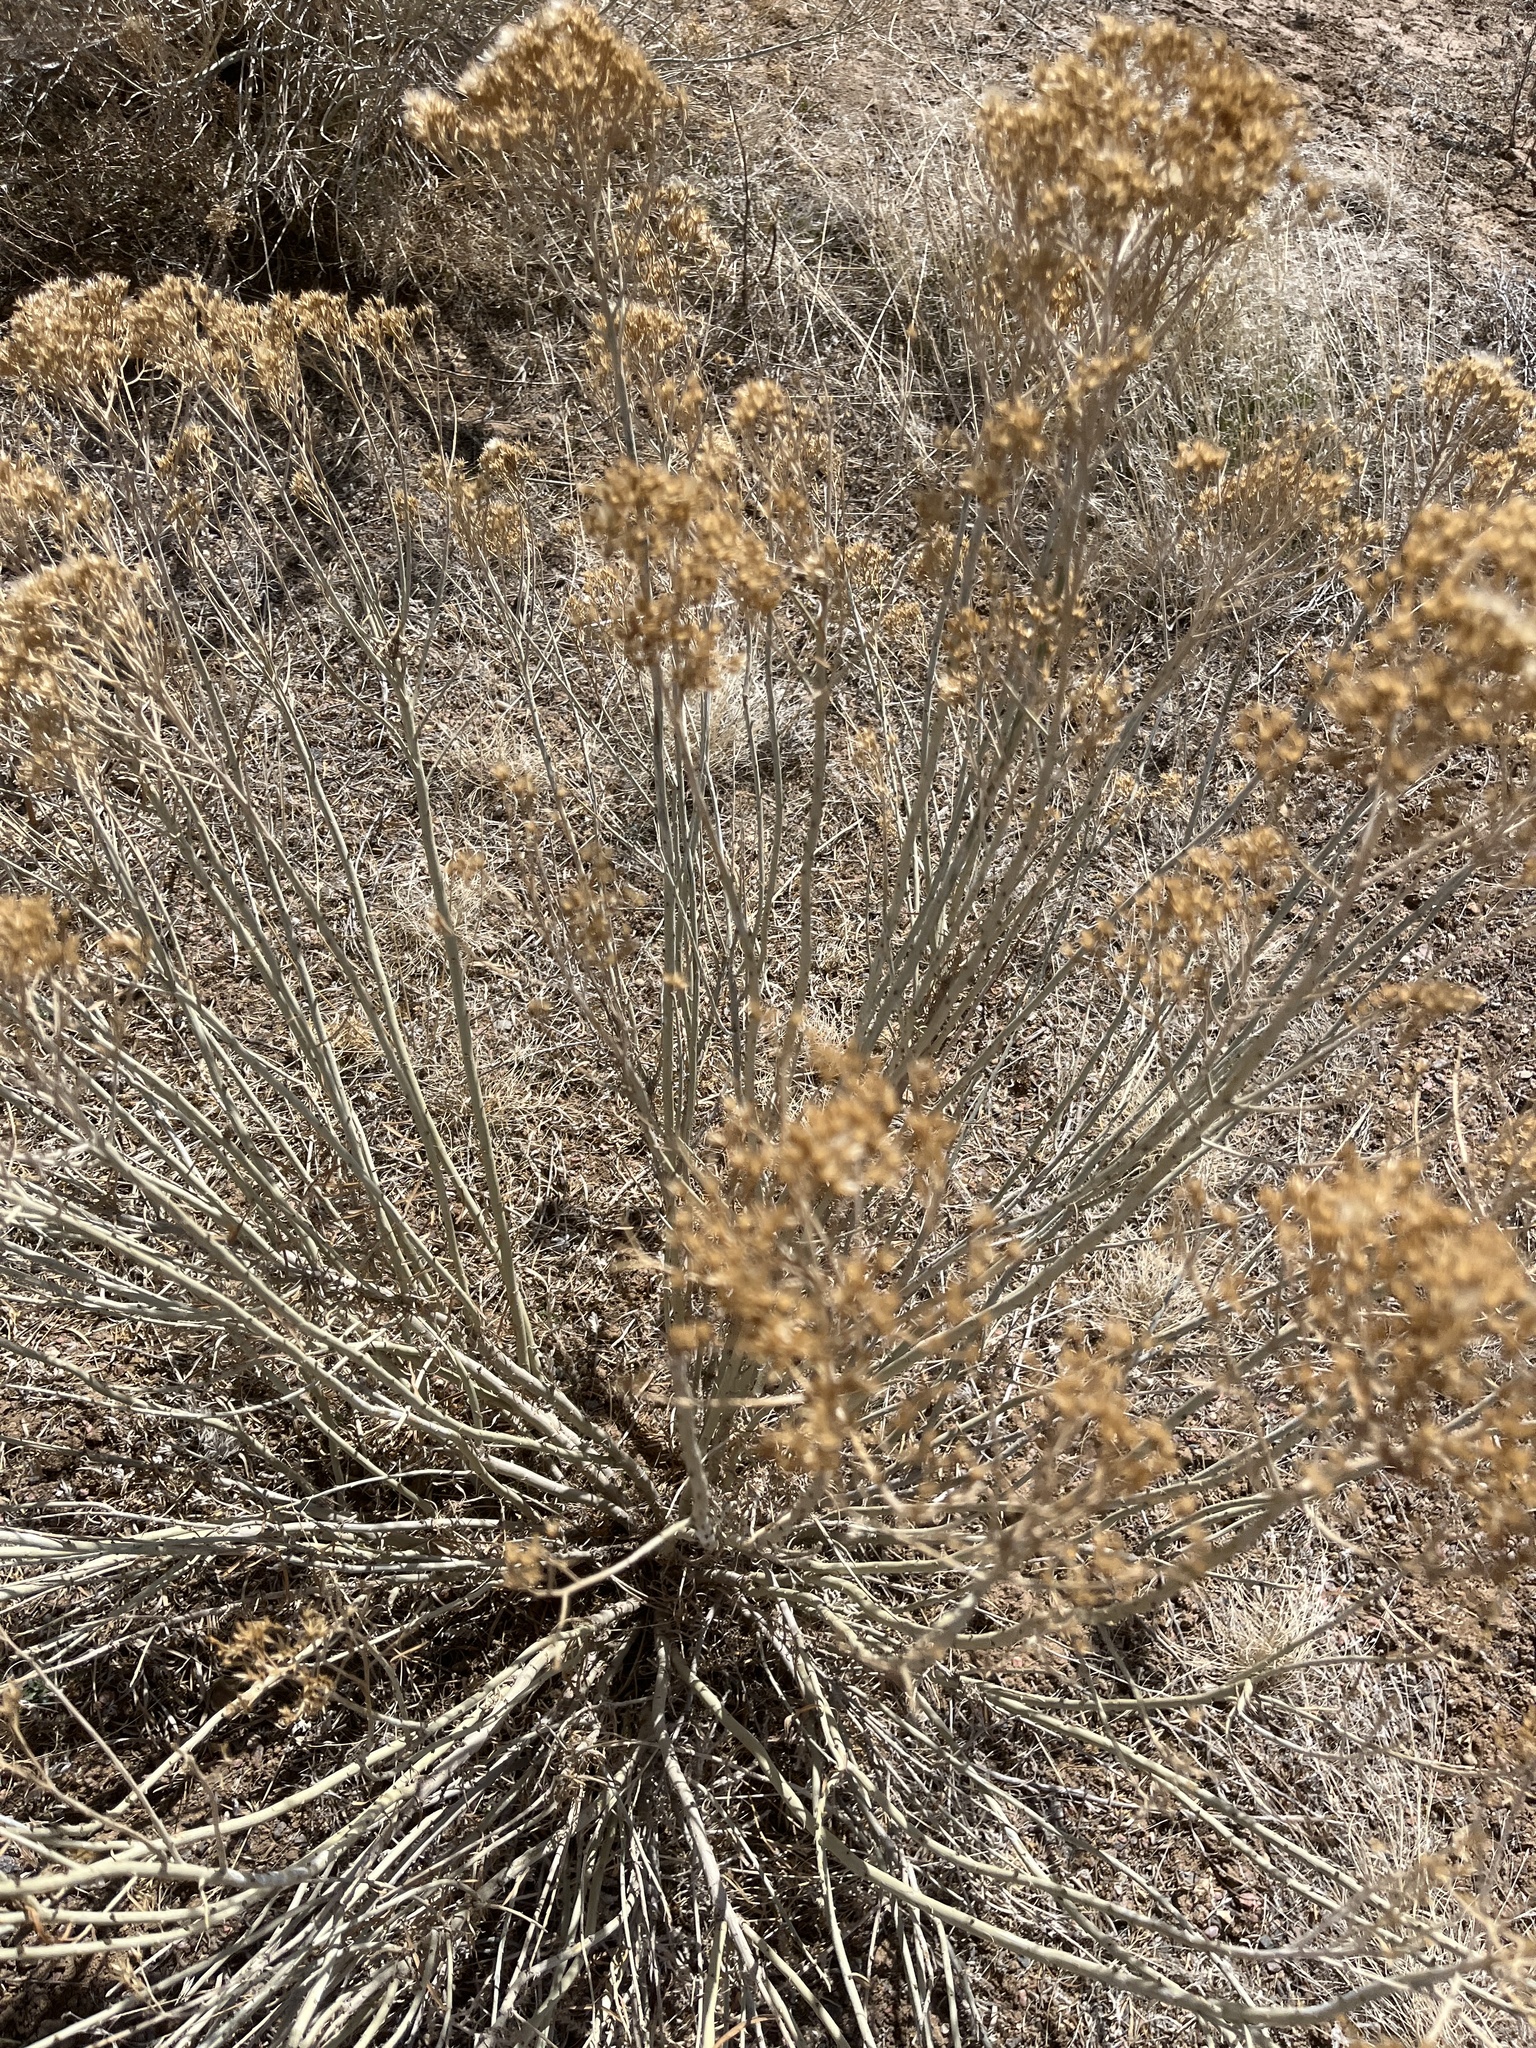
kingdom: Plantae
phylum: Tracheophyta
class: Magnoliopsida
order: Asterales
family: Asteraceae
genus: Ericameria
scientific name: Ericameria nauseosa
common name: Rubber rabbitbrush
